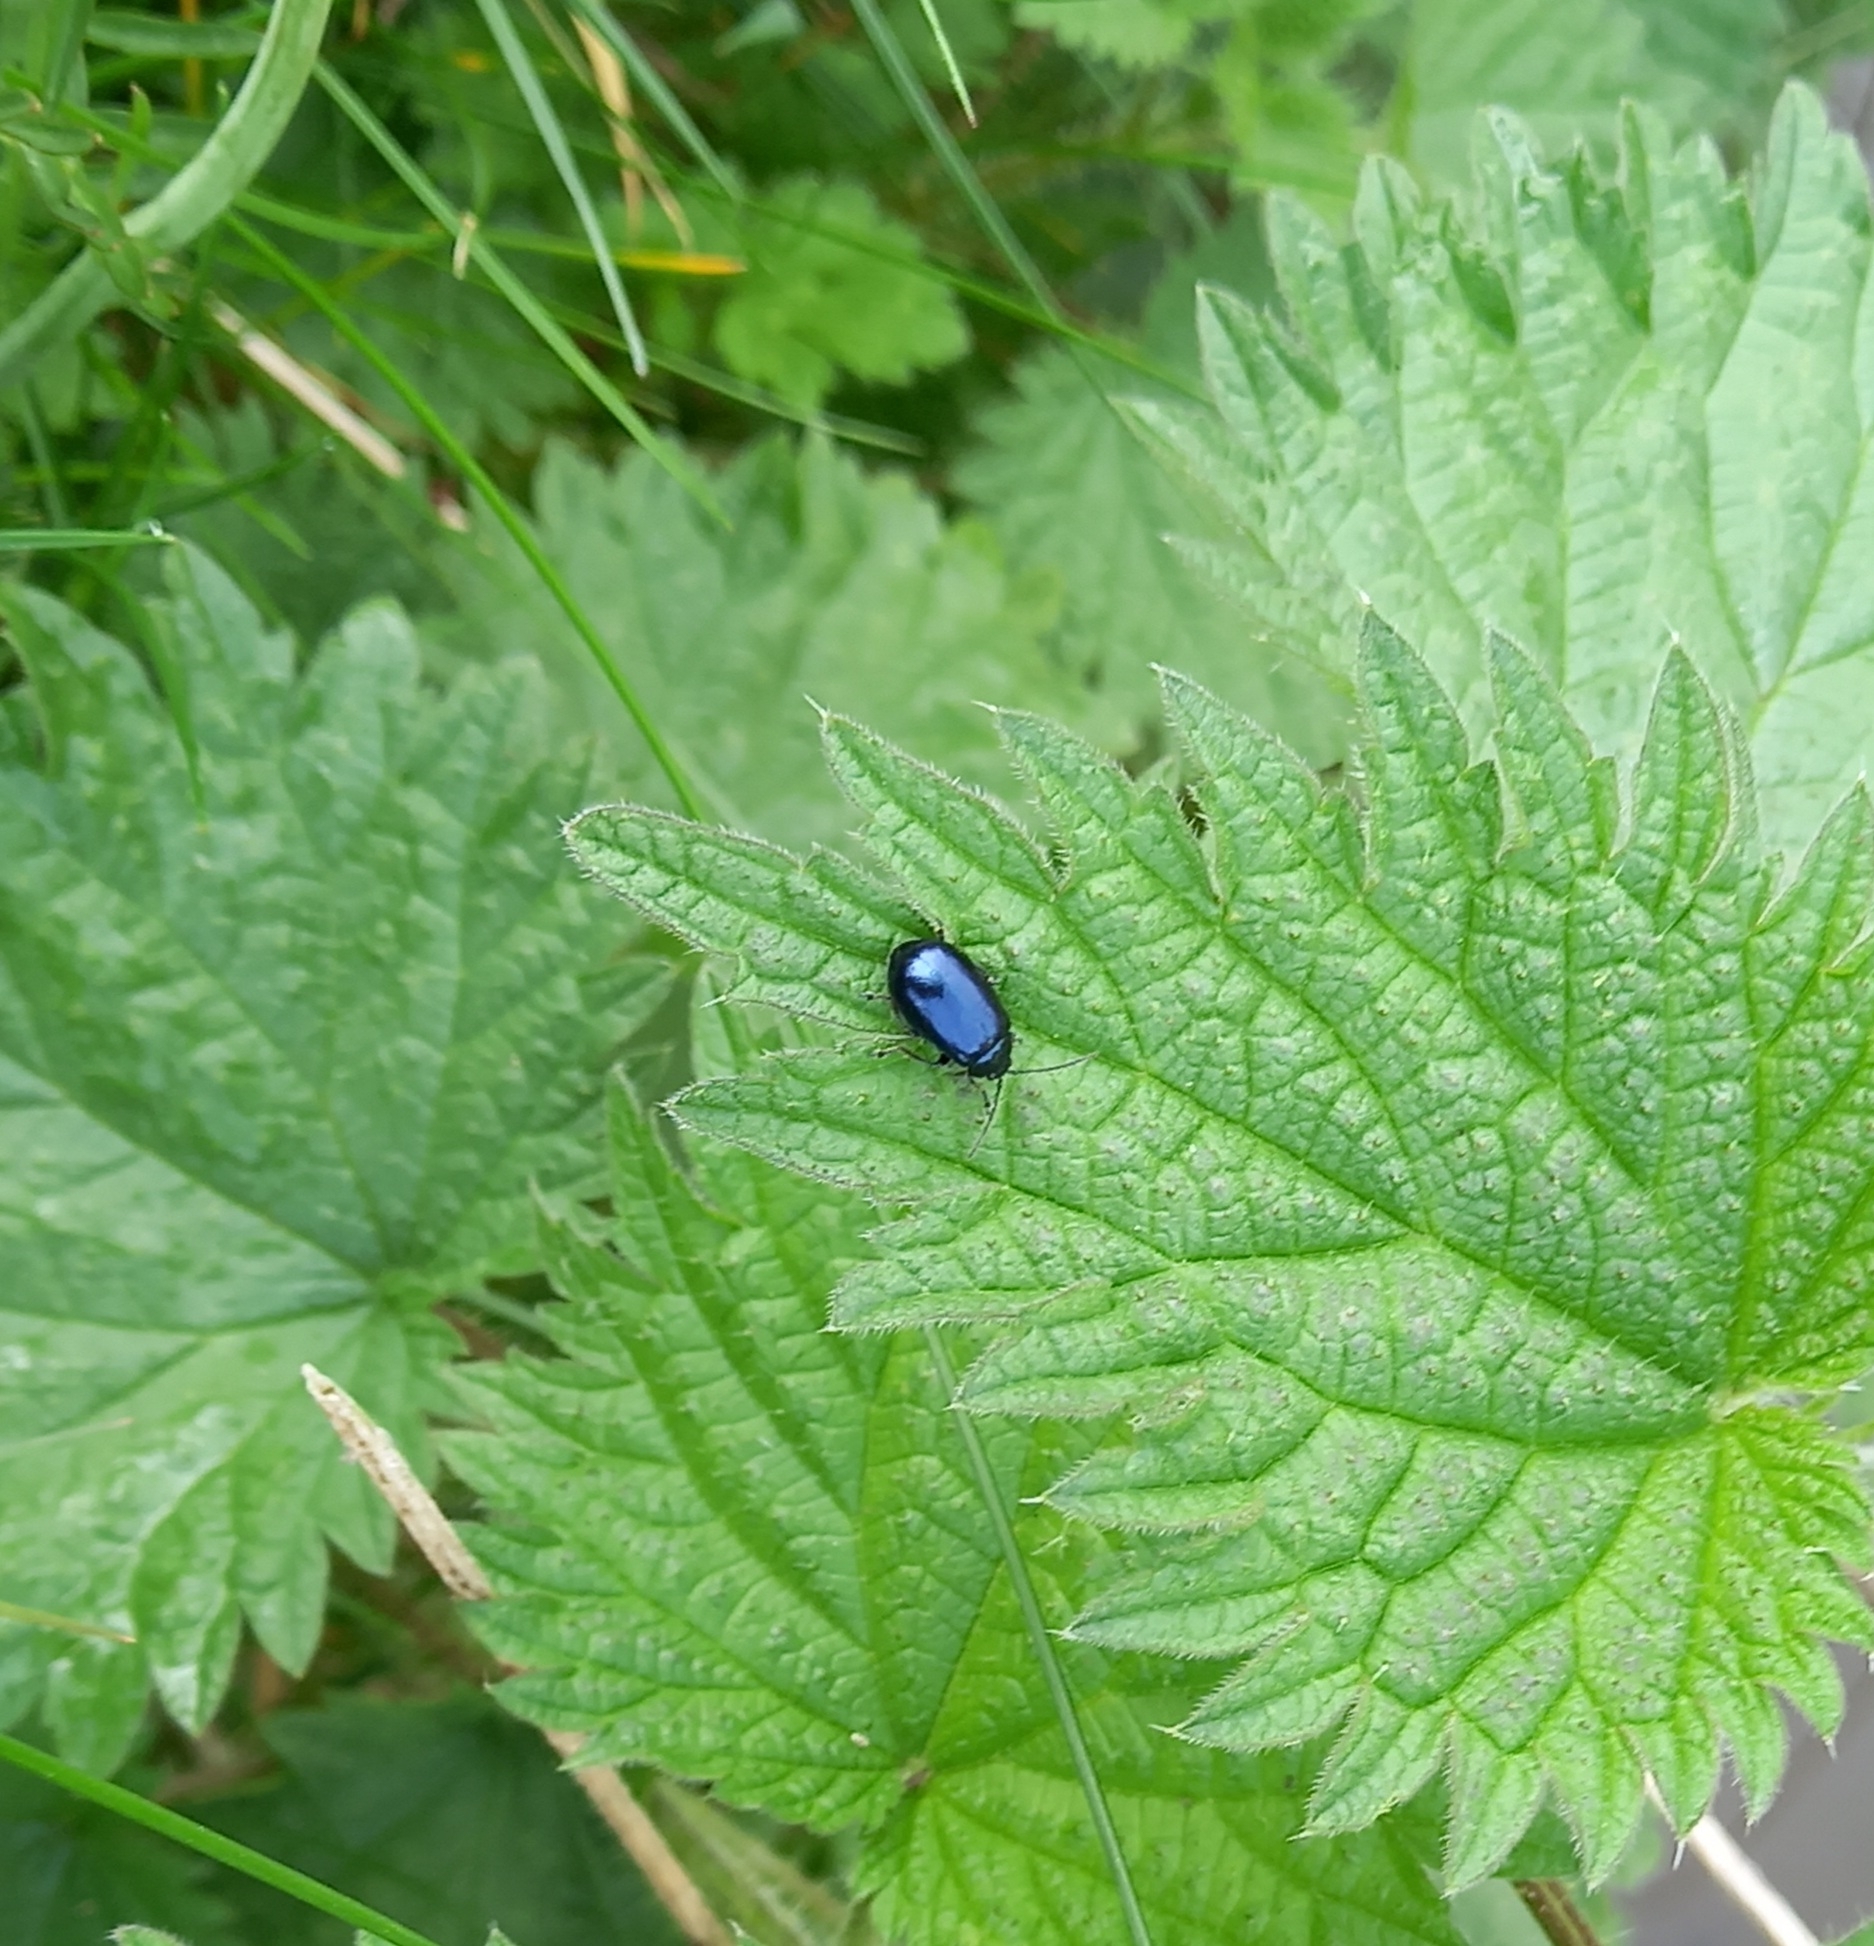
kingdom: Animalia
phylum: Arthropoda
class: Insecta
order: Coleoptera
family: Chrysomelidae
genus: Agelastica
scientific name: Agelastica alni
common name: Alder leaf beetle
